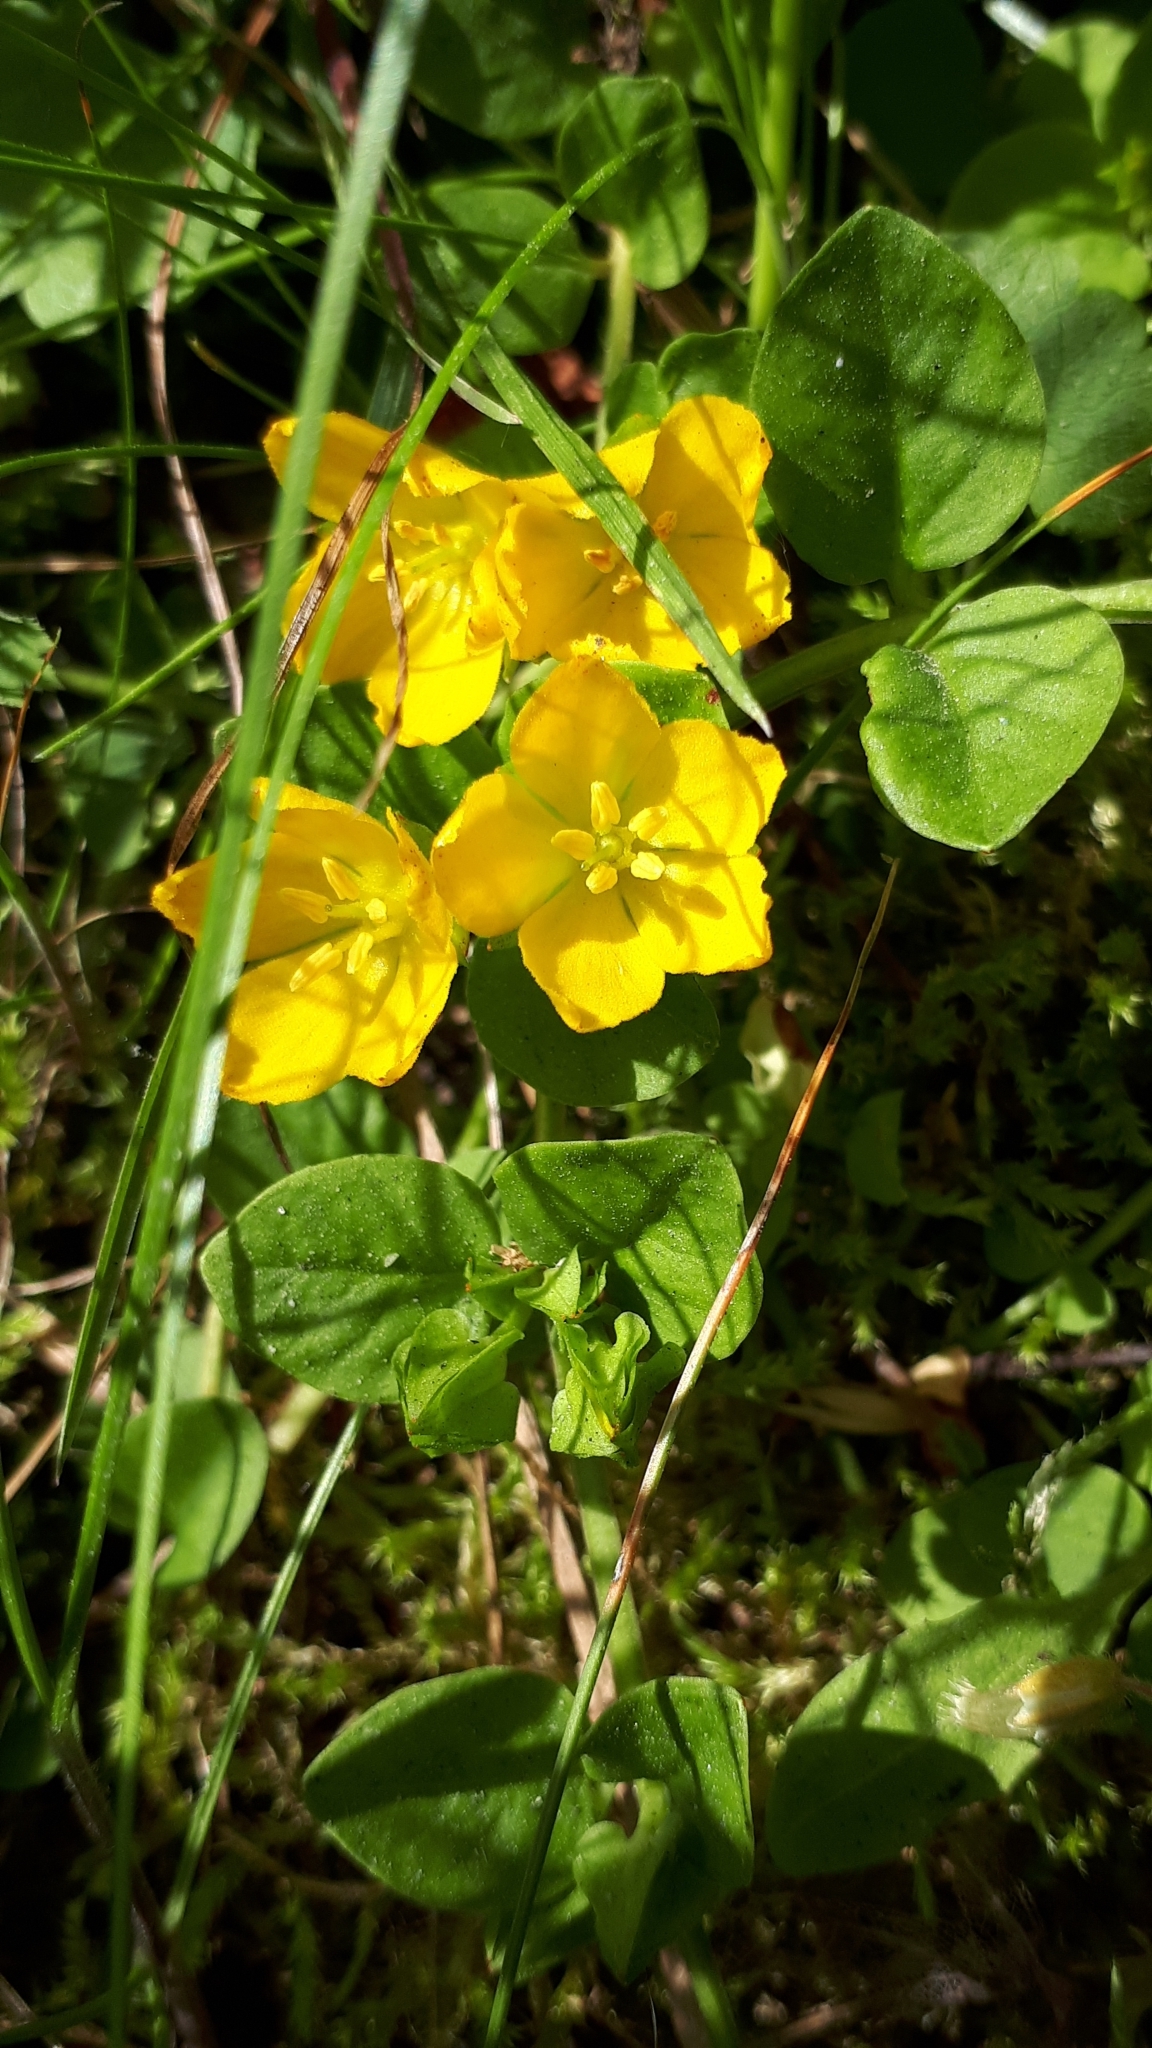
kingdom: Plantae
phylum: Tracheophyta
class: Magnoliopsida
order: Ericales
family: Primulaceae
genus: Lysimachia
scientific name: Lysimachia nummularia
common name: Moneywort
